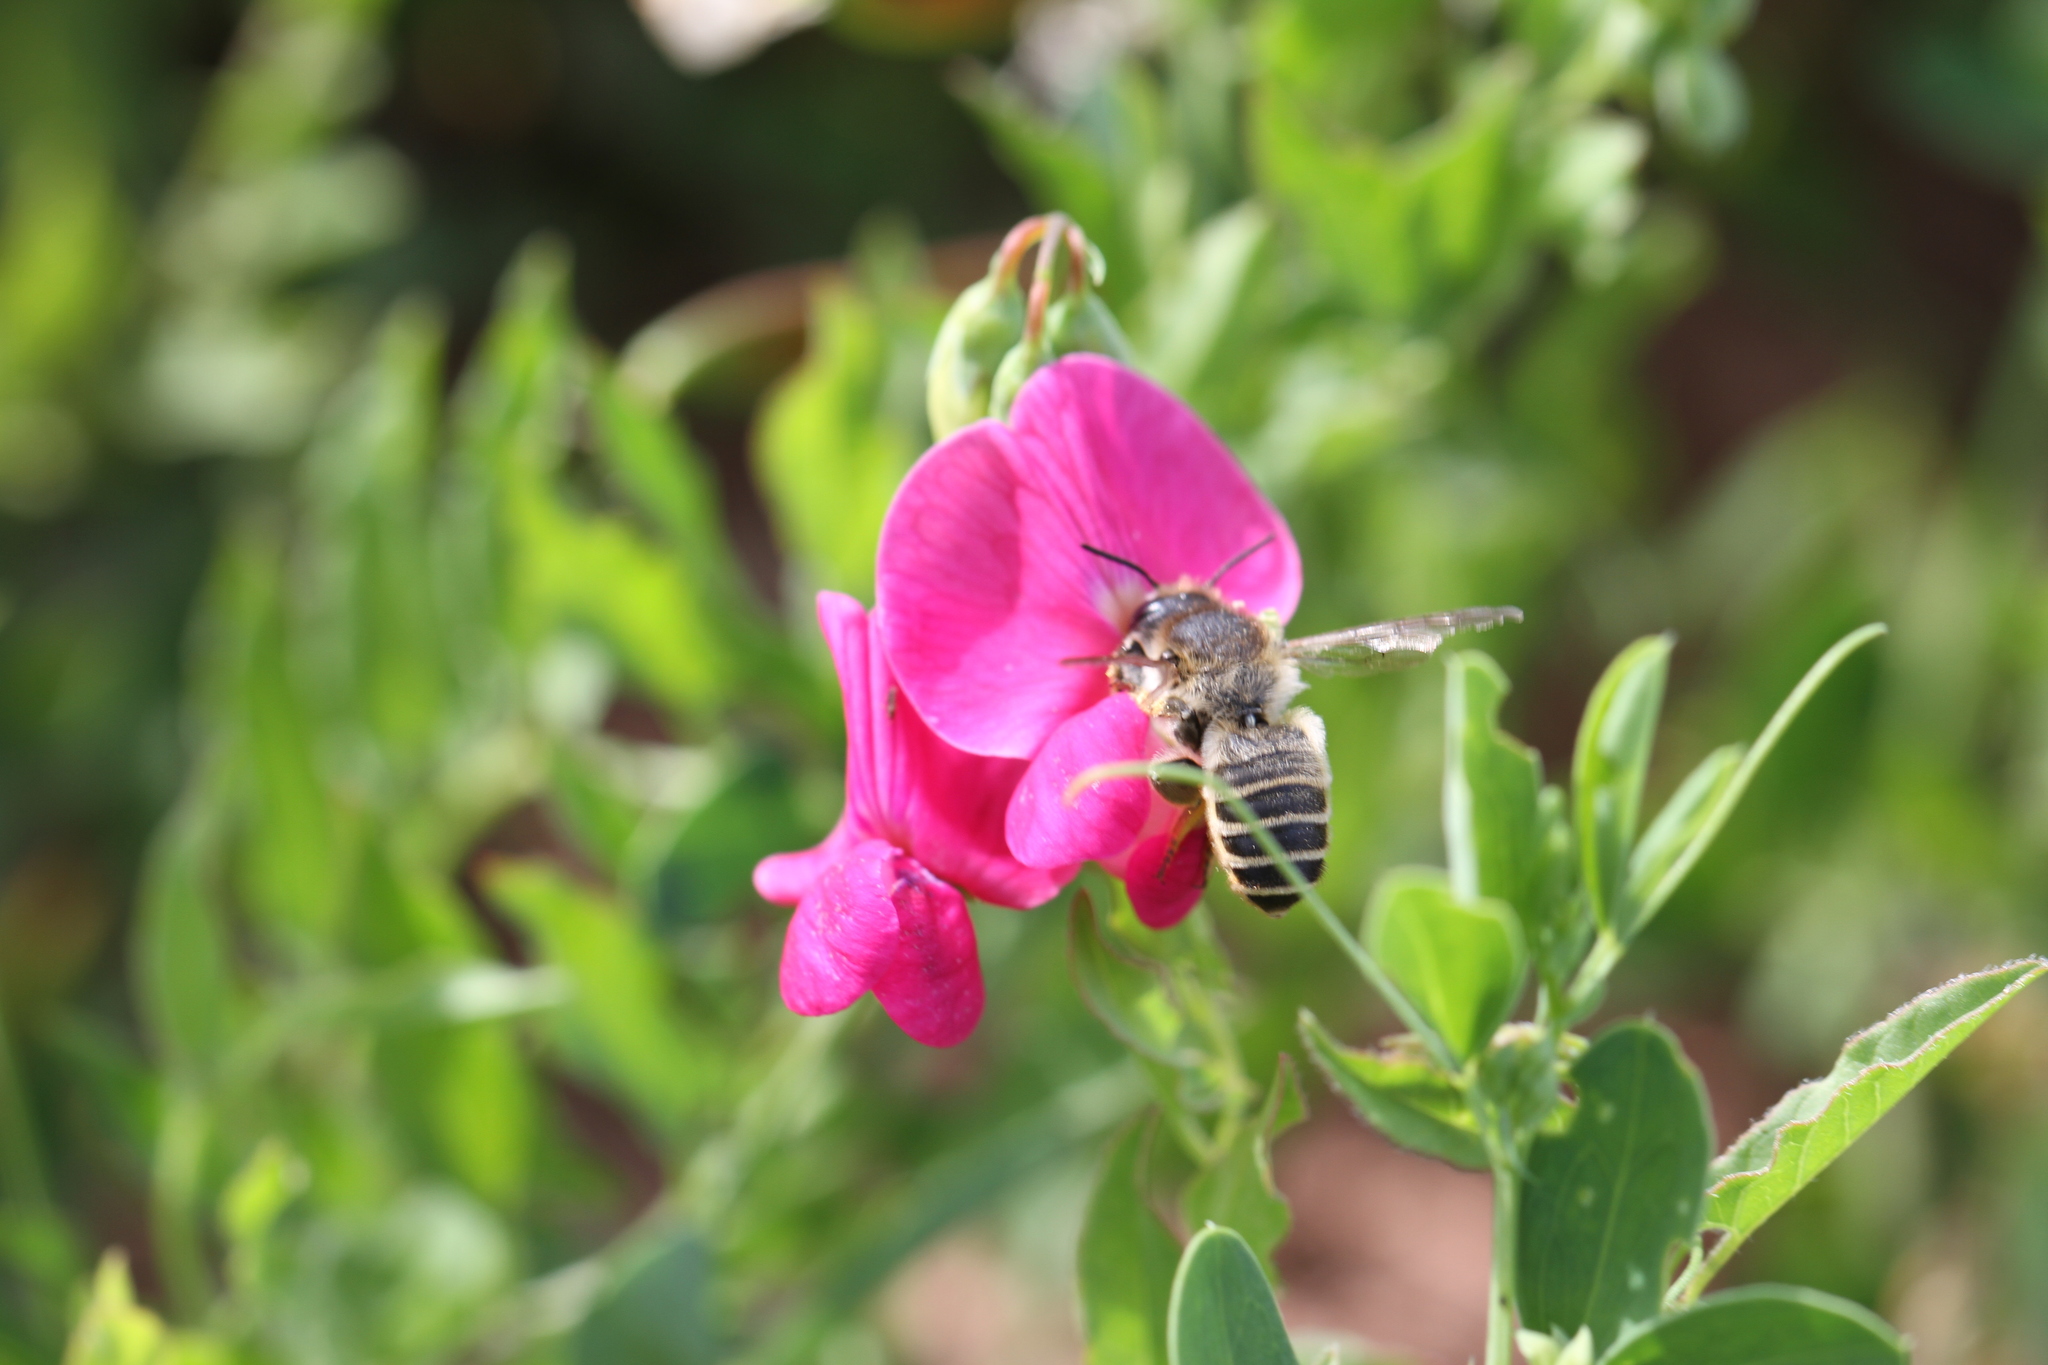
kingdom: Animalia
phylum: Arthropoda
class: Insecta
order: Hymenoptera
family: Megachilidae
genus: Megachile
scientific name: Megachile ericetorum
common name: Leafcutter bee
